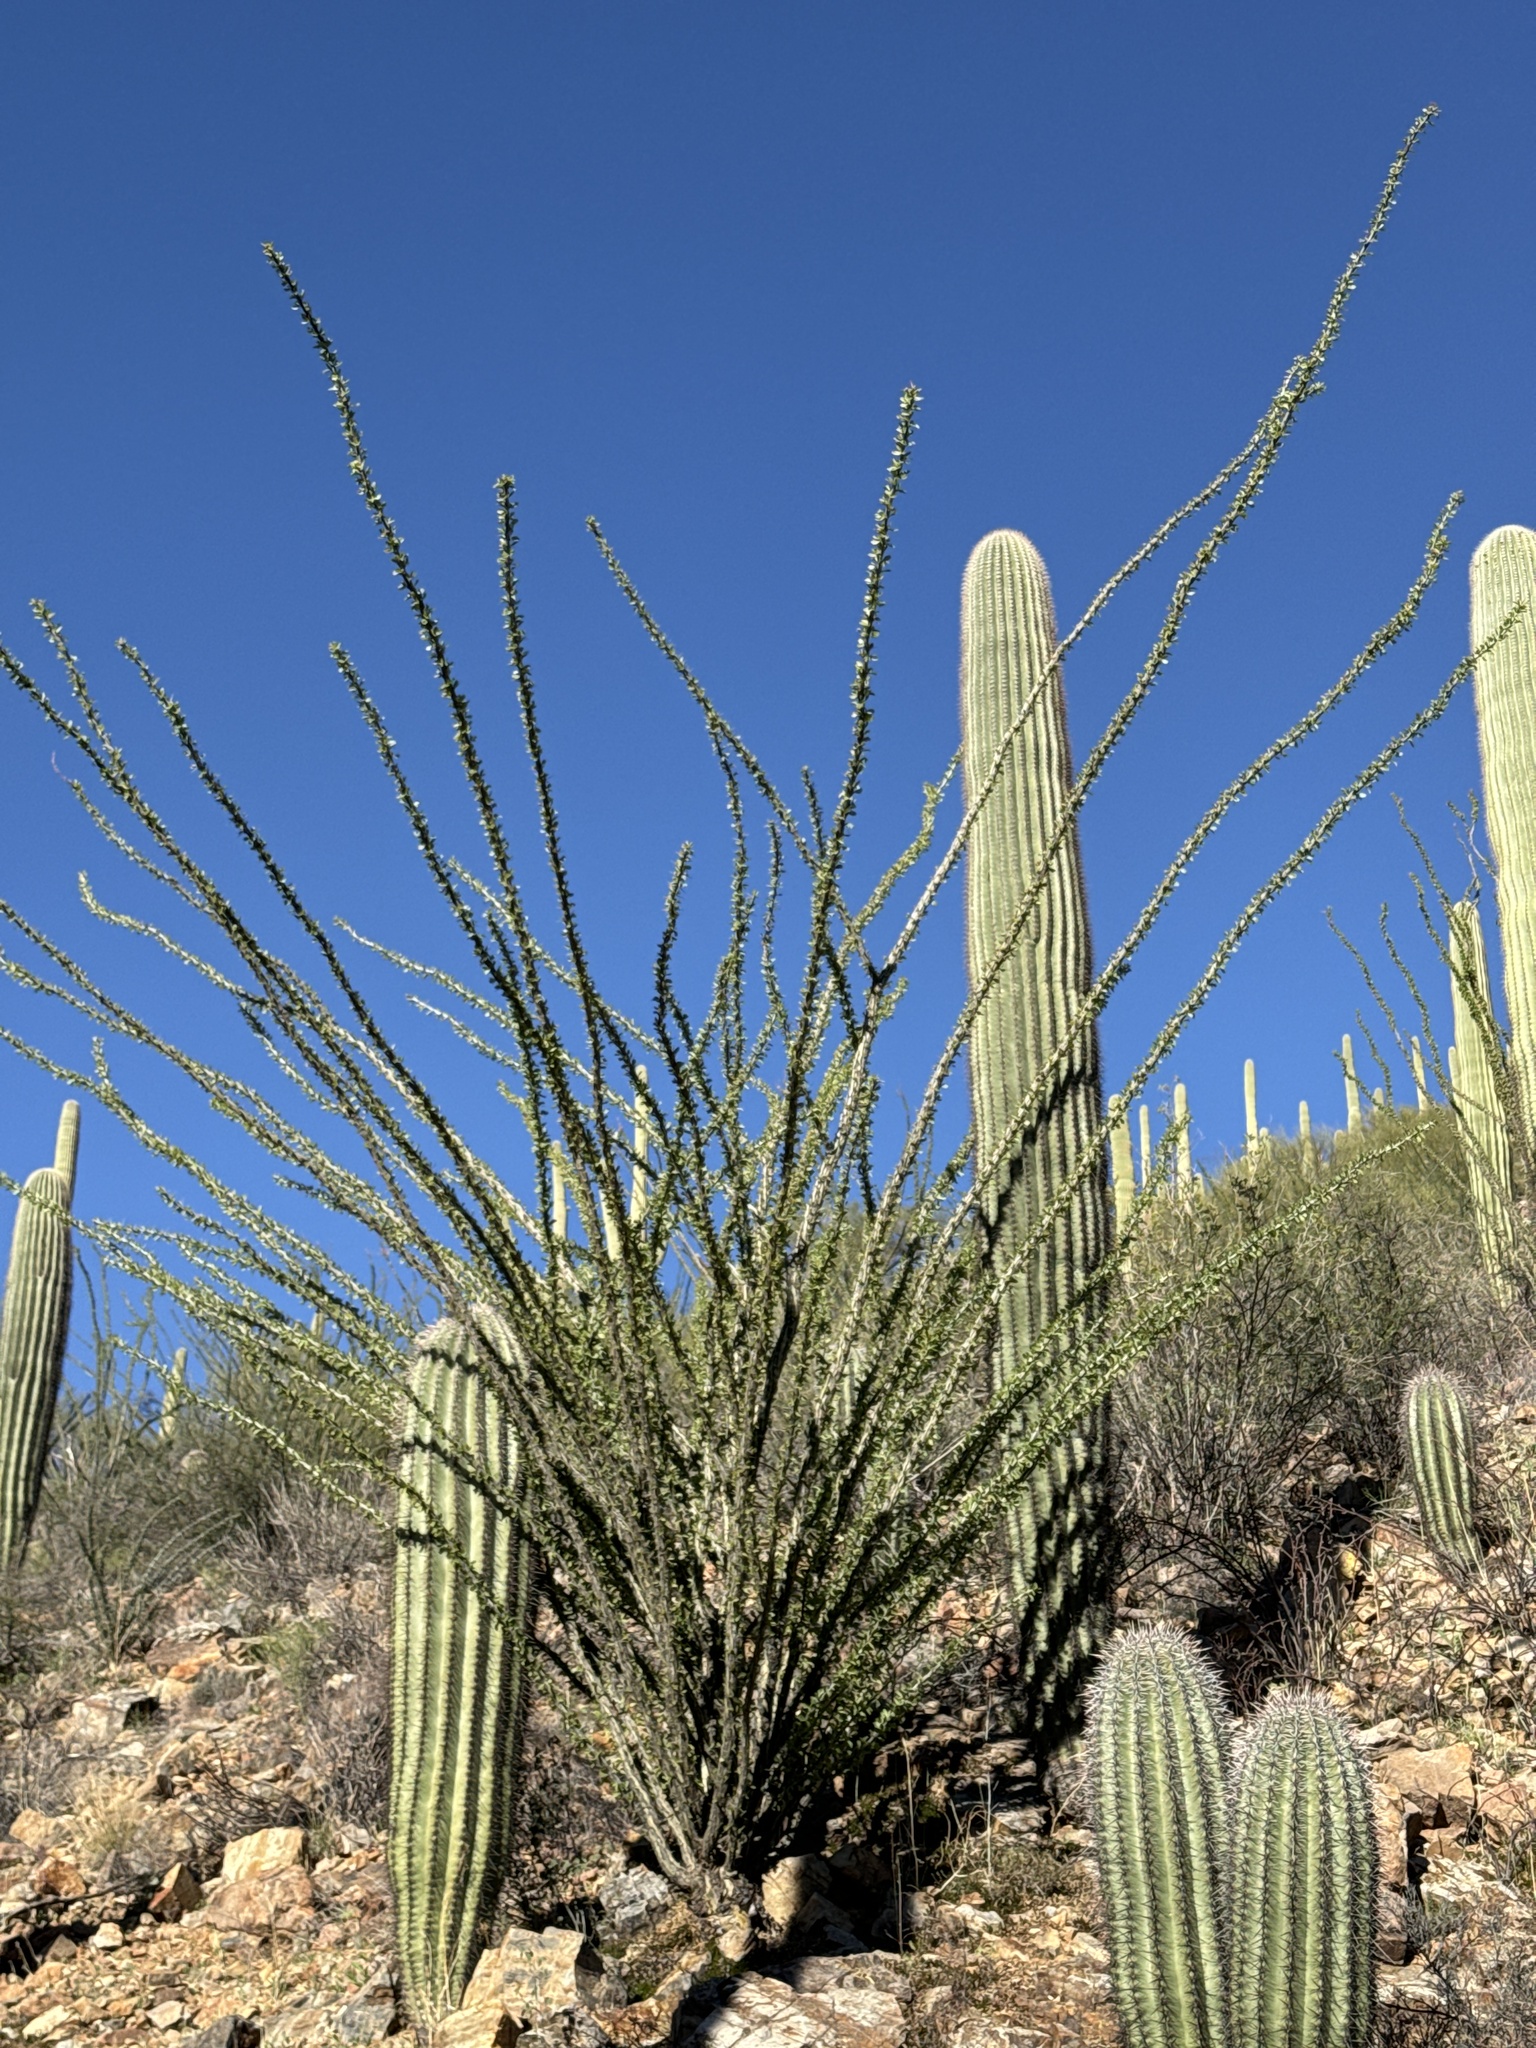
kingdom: Plantae
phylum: Tracheophyta
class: Magnoliopsida
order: Ericales
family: Fouquieriaceae
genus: Fouquieria
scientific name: Fouquieria splendens
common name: Vine-cactus
